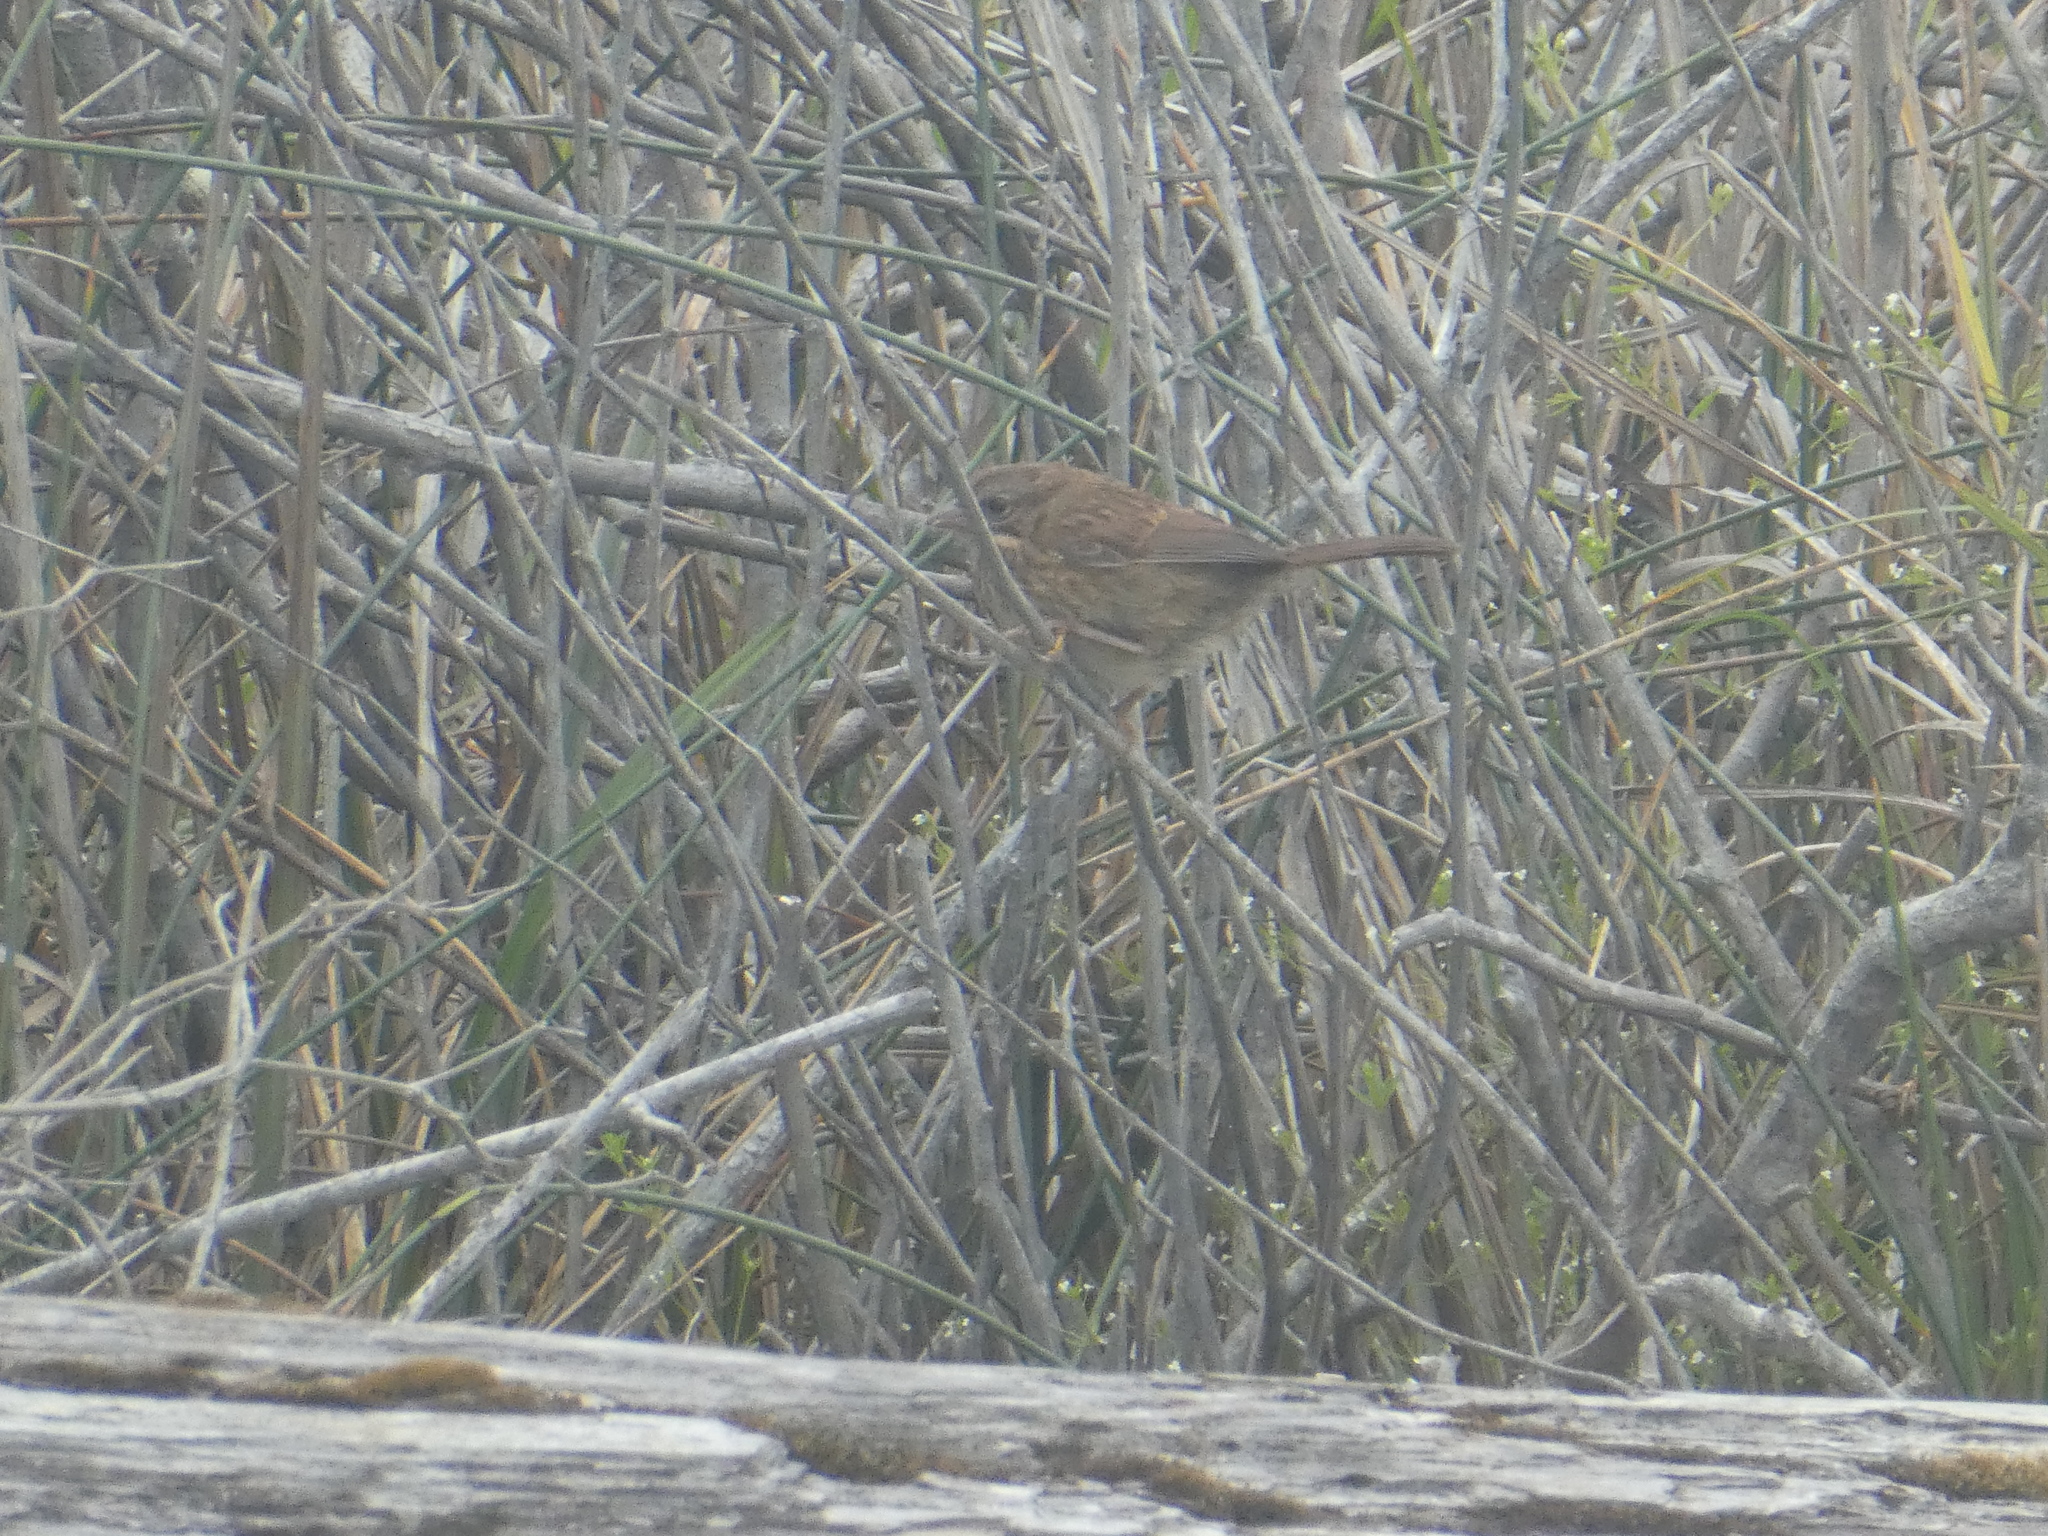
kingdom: Animalia
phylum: Chordata
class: Aves
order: Passeriformes
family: Passerellidae
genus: Melospiza
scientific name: Melospiza melodia
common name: Song sparrow
